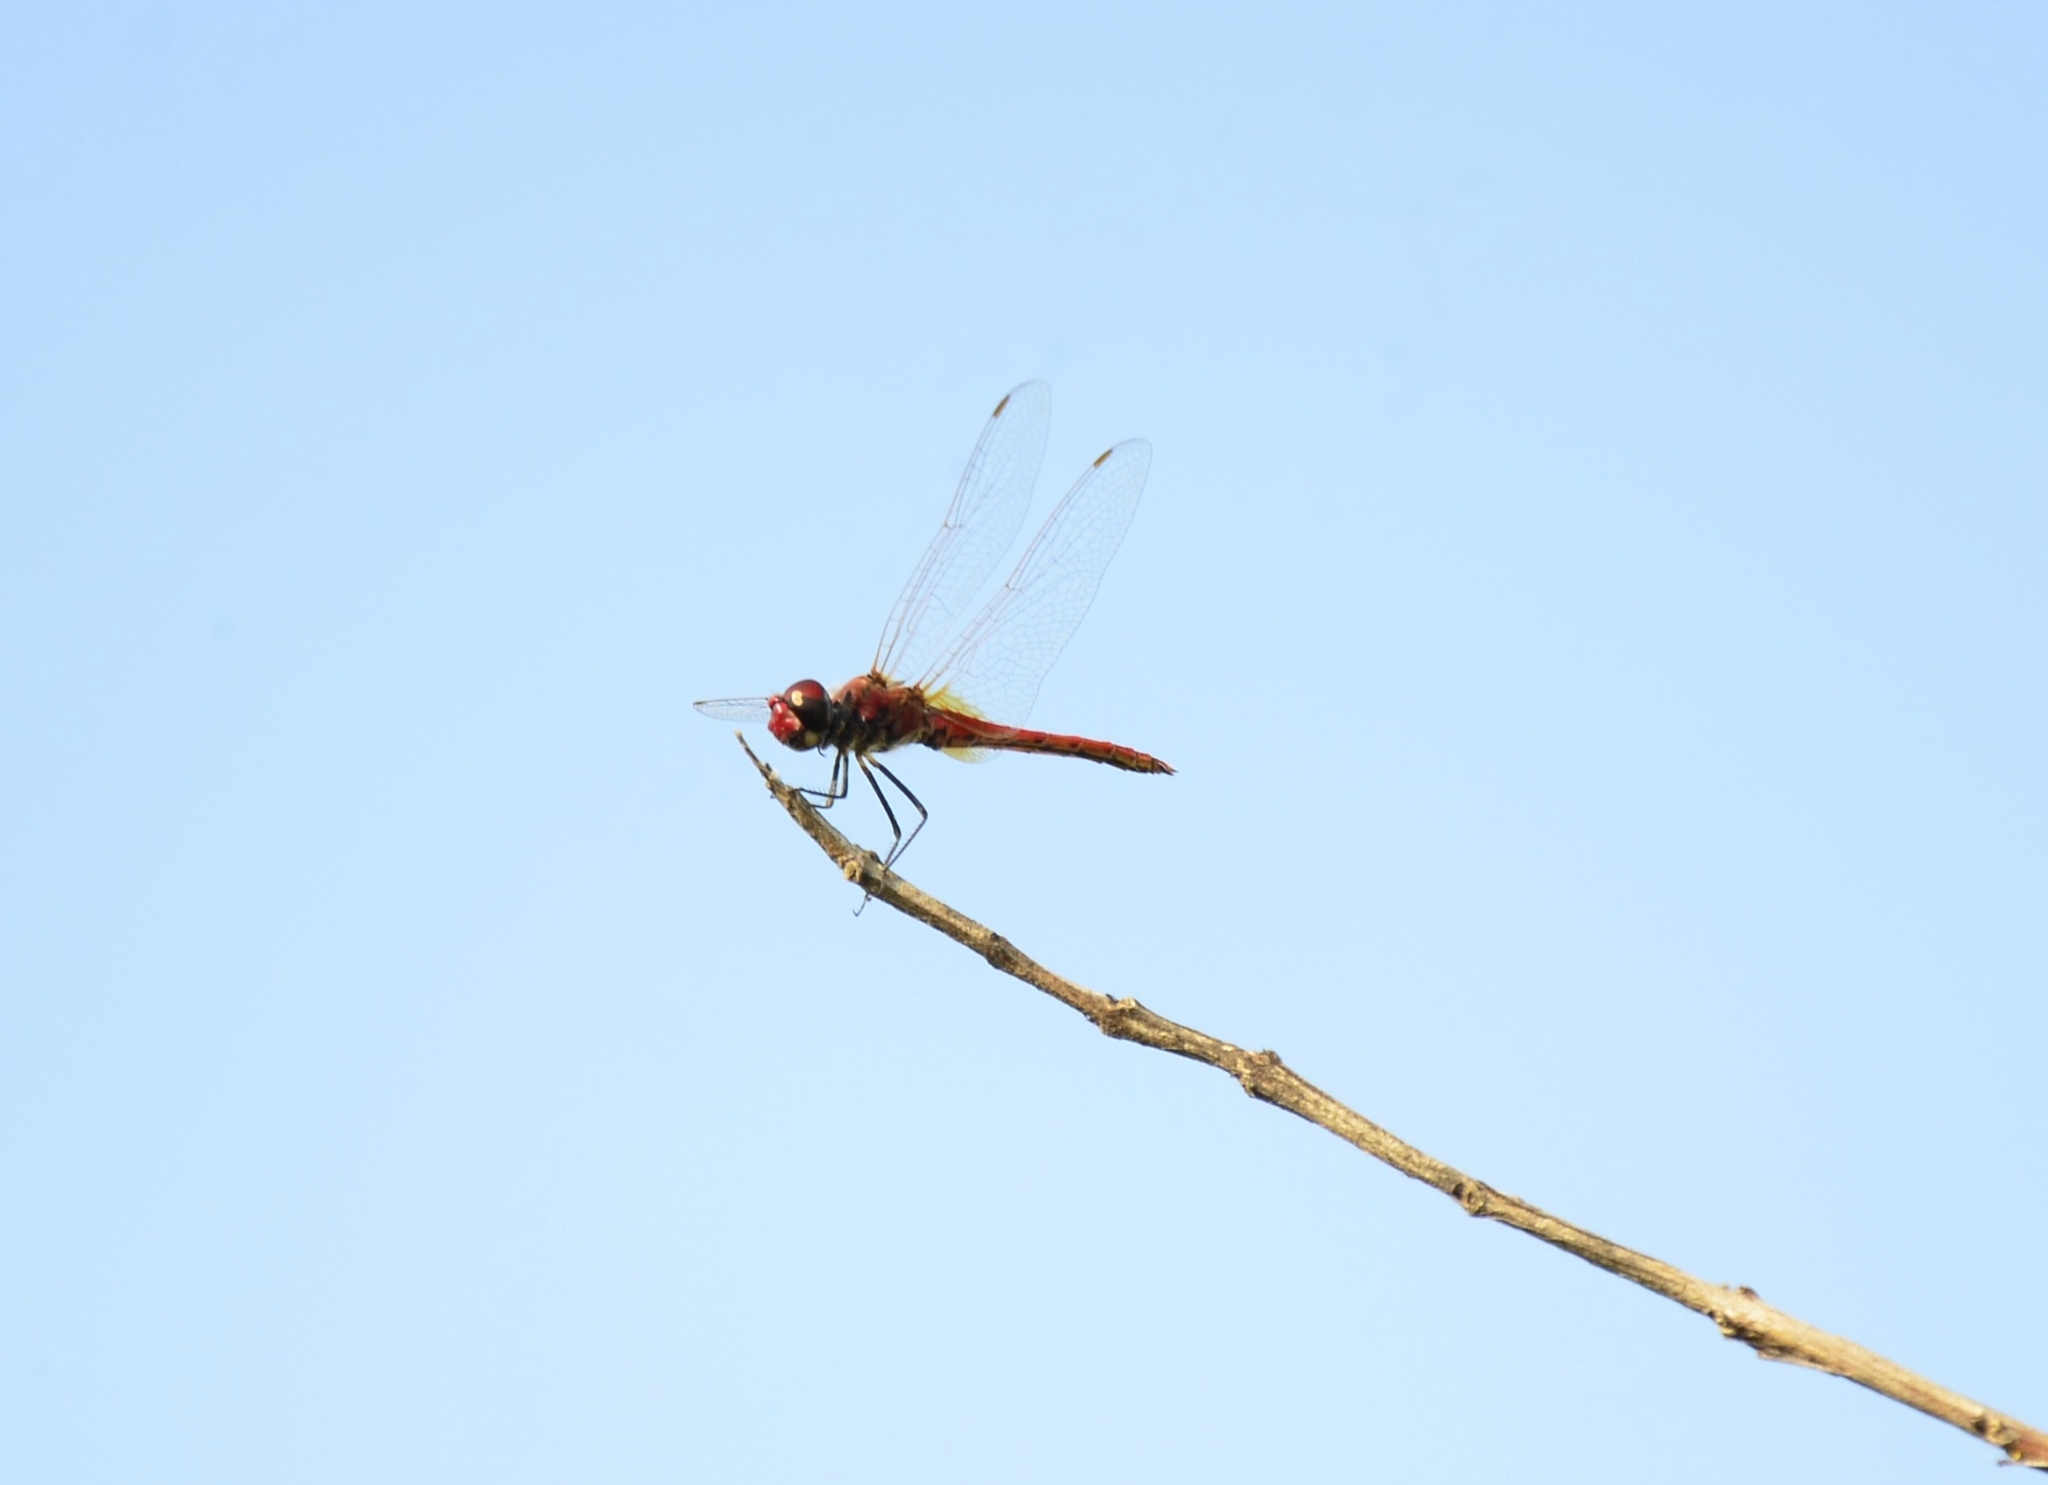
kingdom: Animalia
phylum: Arthropoda
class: Insecta
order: Odonata
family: Libellulidae
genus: Macrodiplax
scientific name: Macrodiplax cora
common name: Coastal glider
